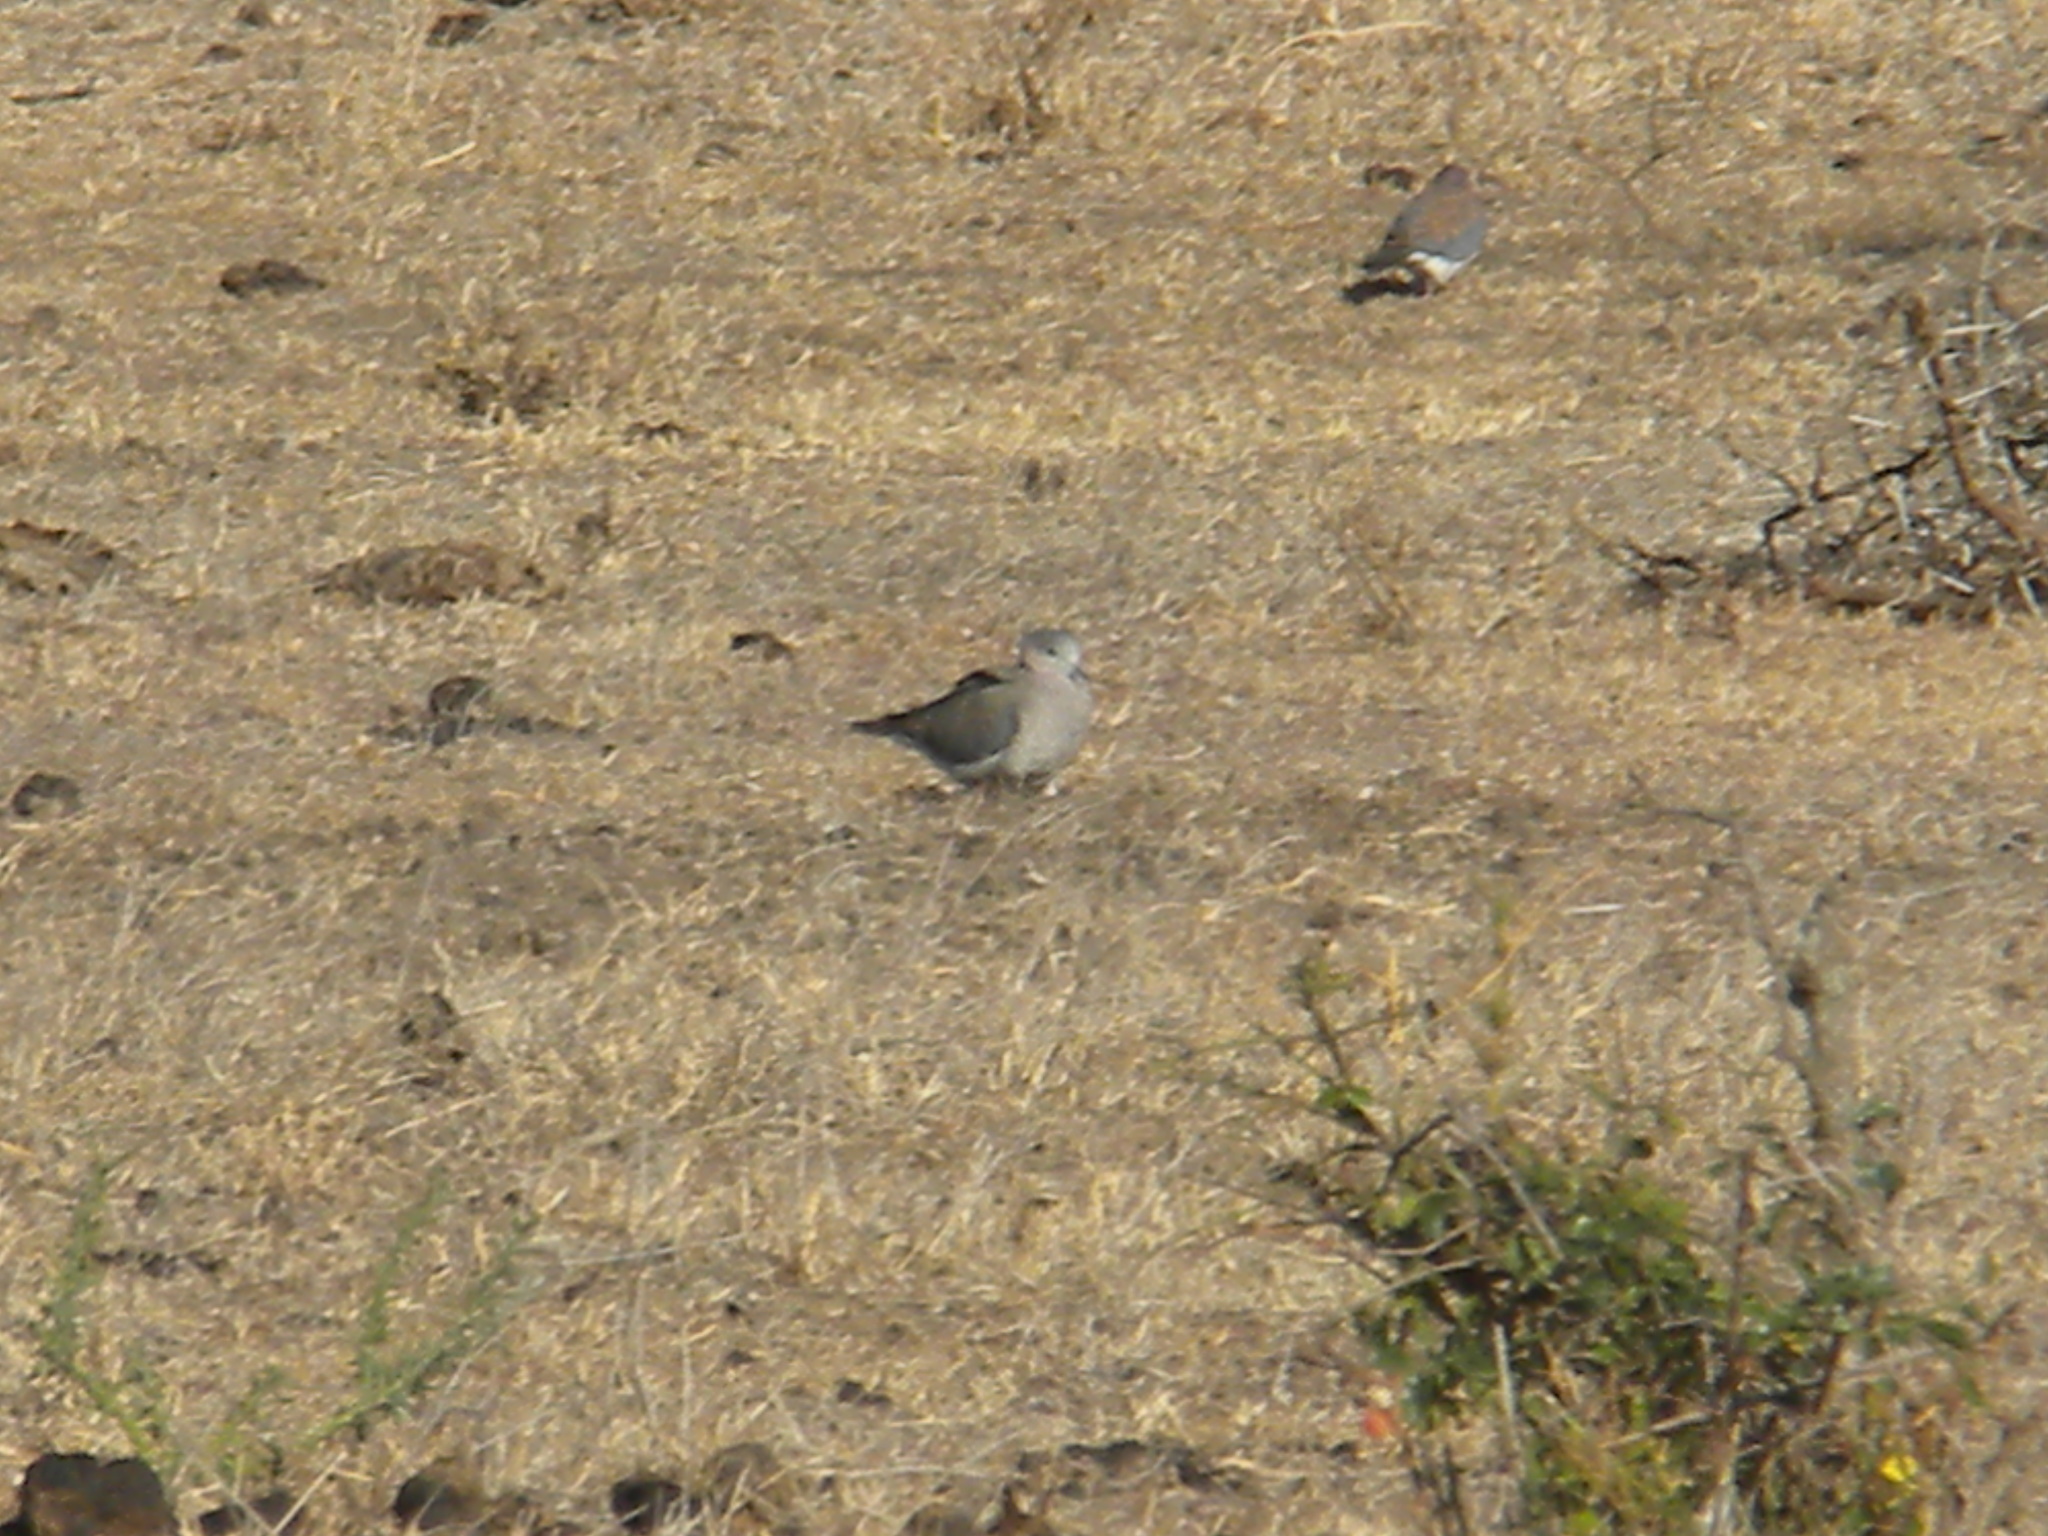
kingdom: Animalia
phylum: Chordata
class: Aves
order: Columbiformes
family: Columbidae
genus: Streptopelia
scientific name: Streptopelia capicola
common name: Ring-necked dove
